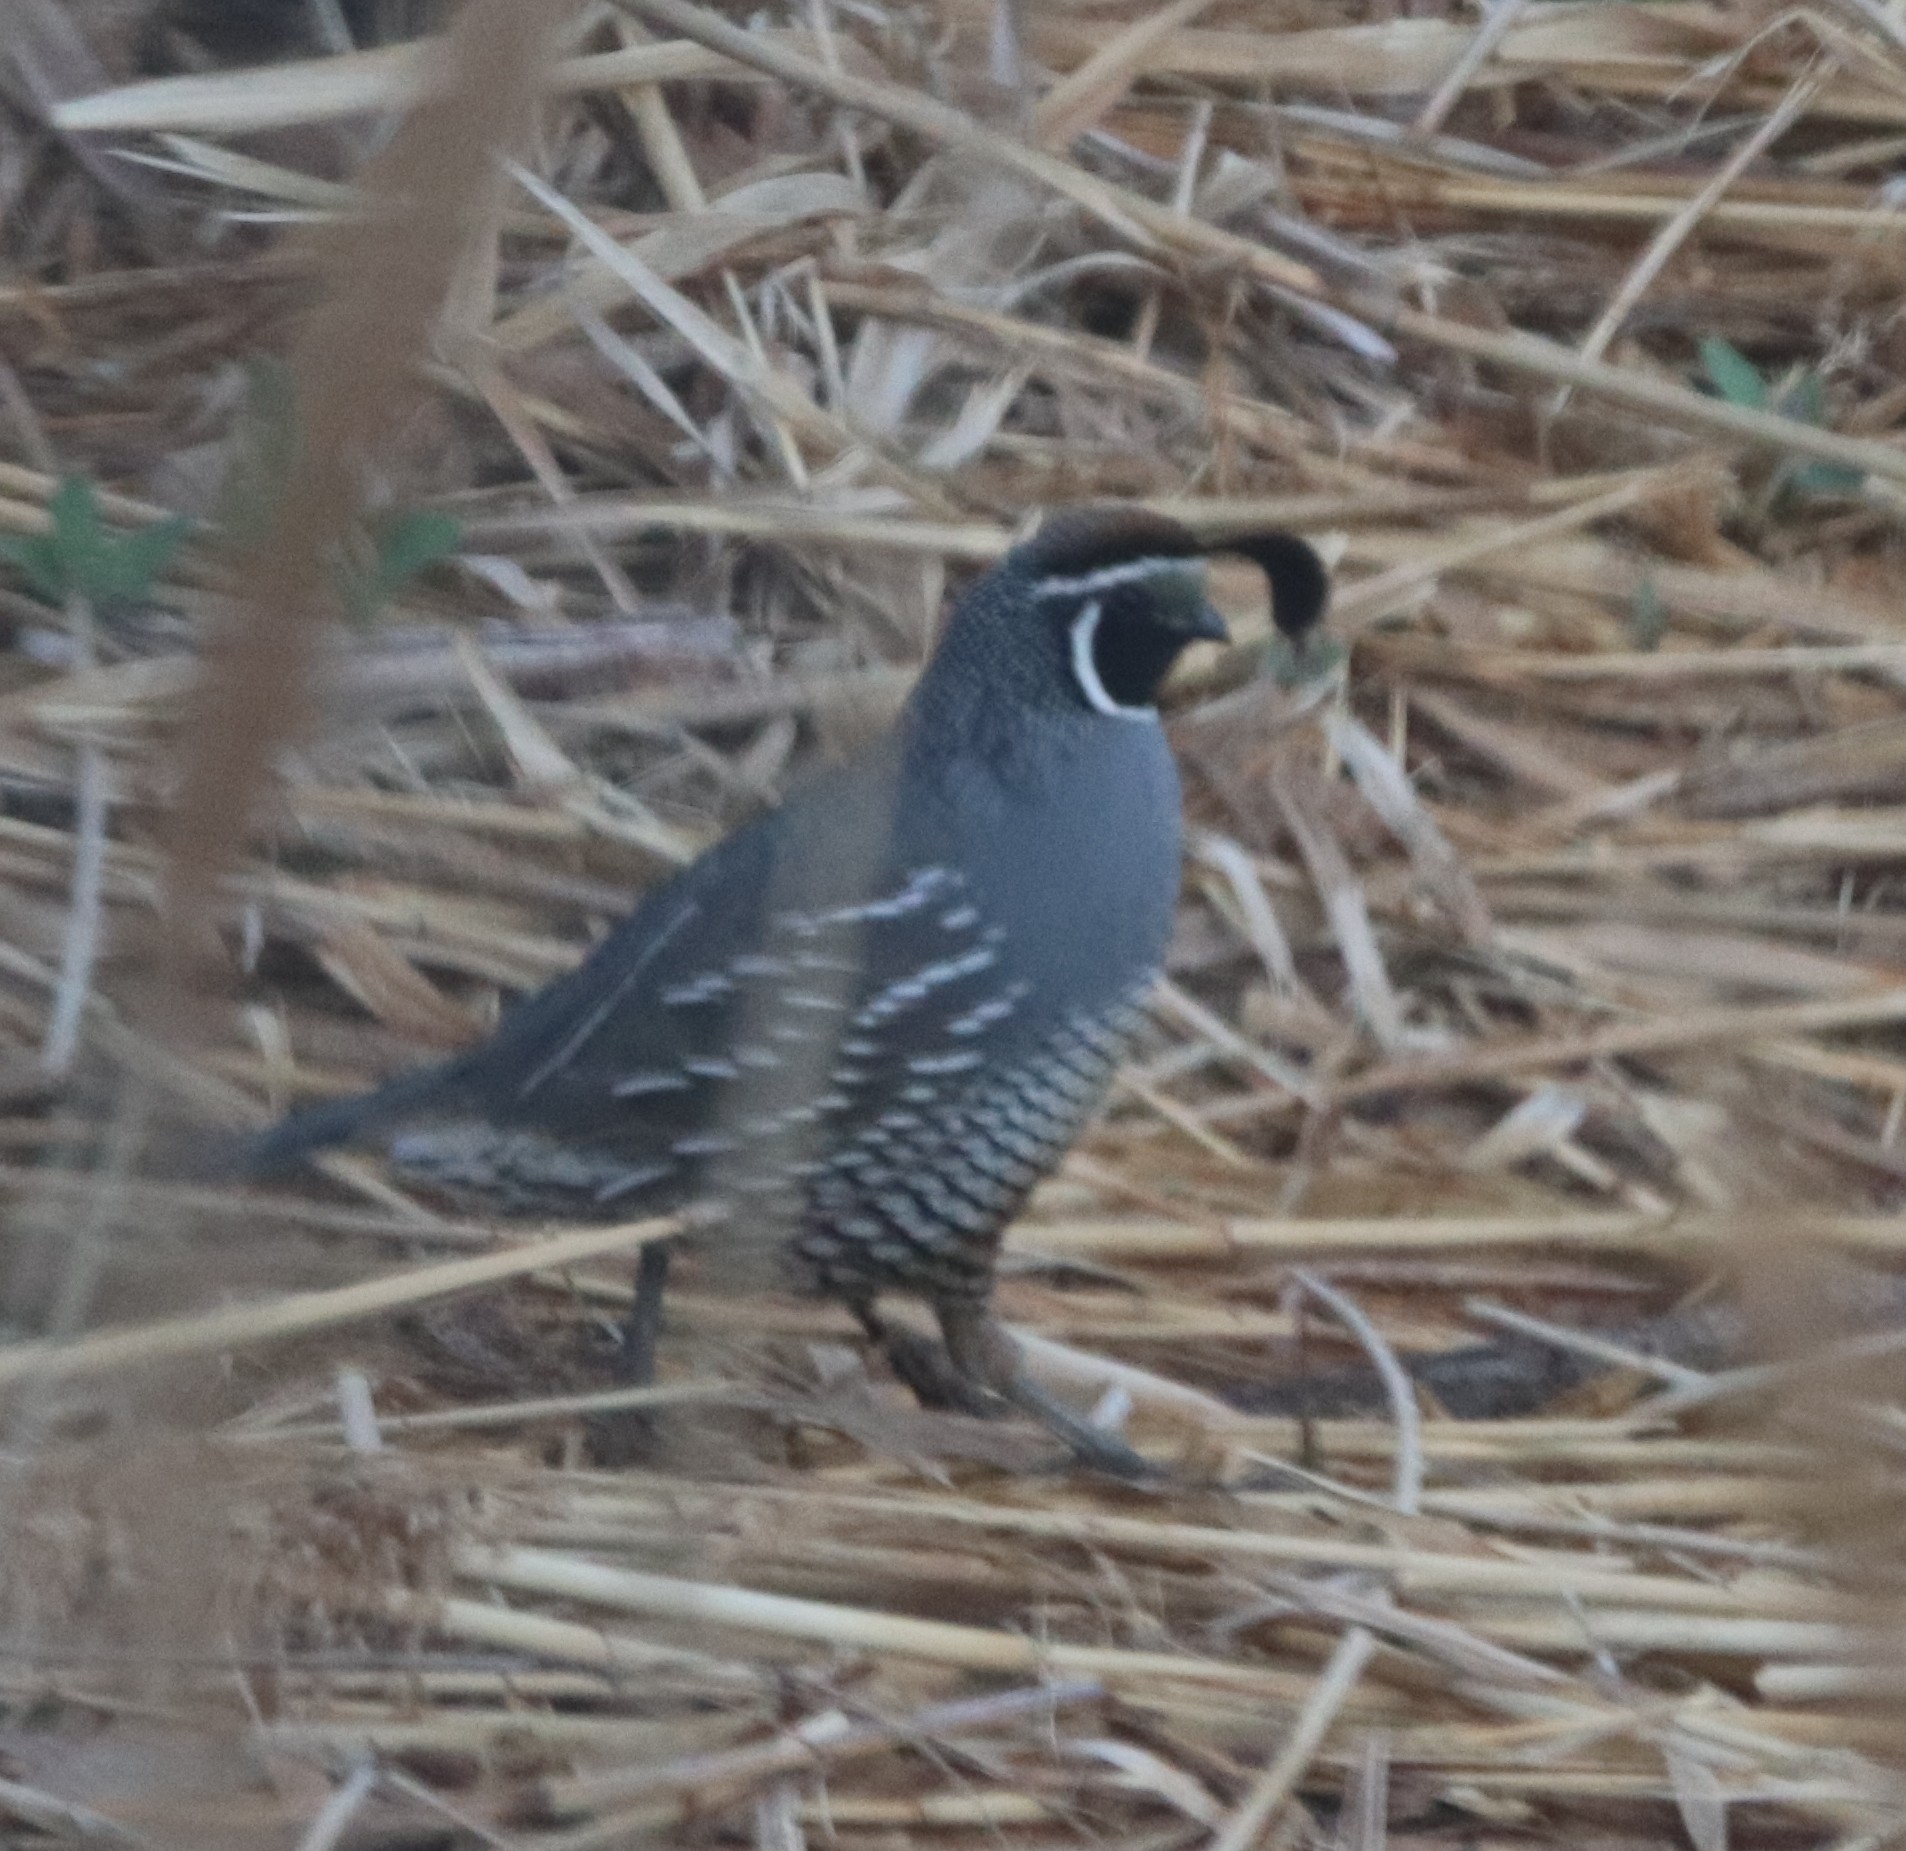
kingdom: Animalia
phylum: Chordata
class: Aves
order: Galliformes
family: Odontophoridae
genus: Callipepla
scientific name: Callipepla californica
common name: California quail
